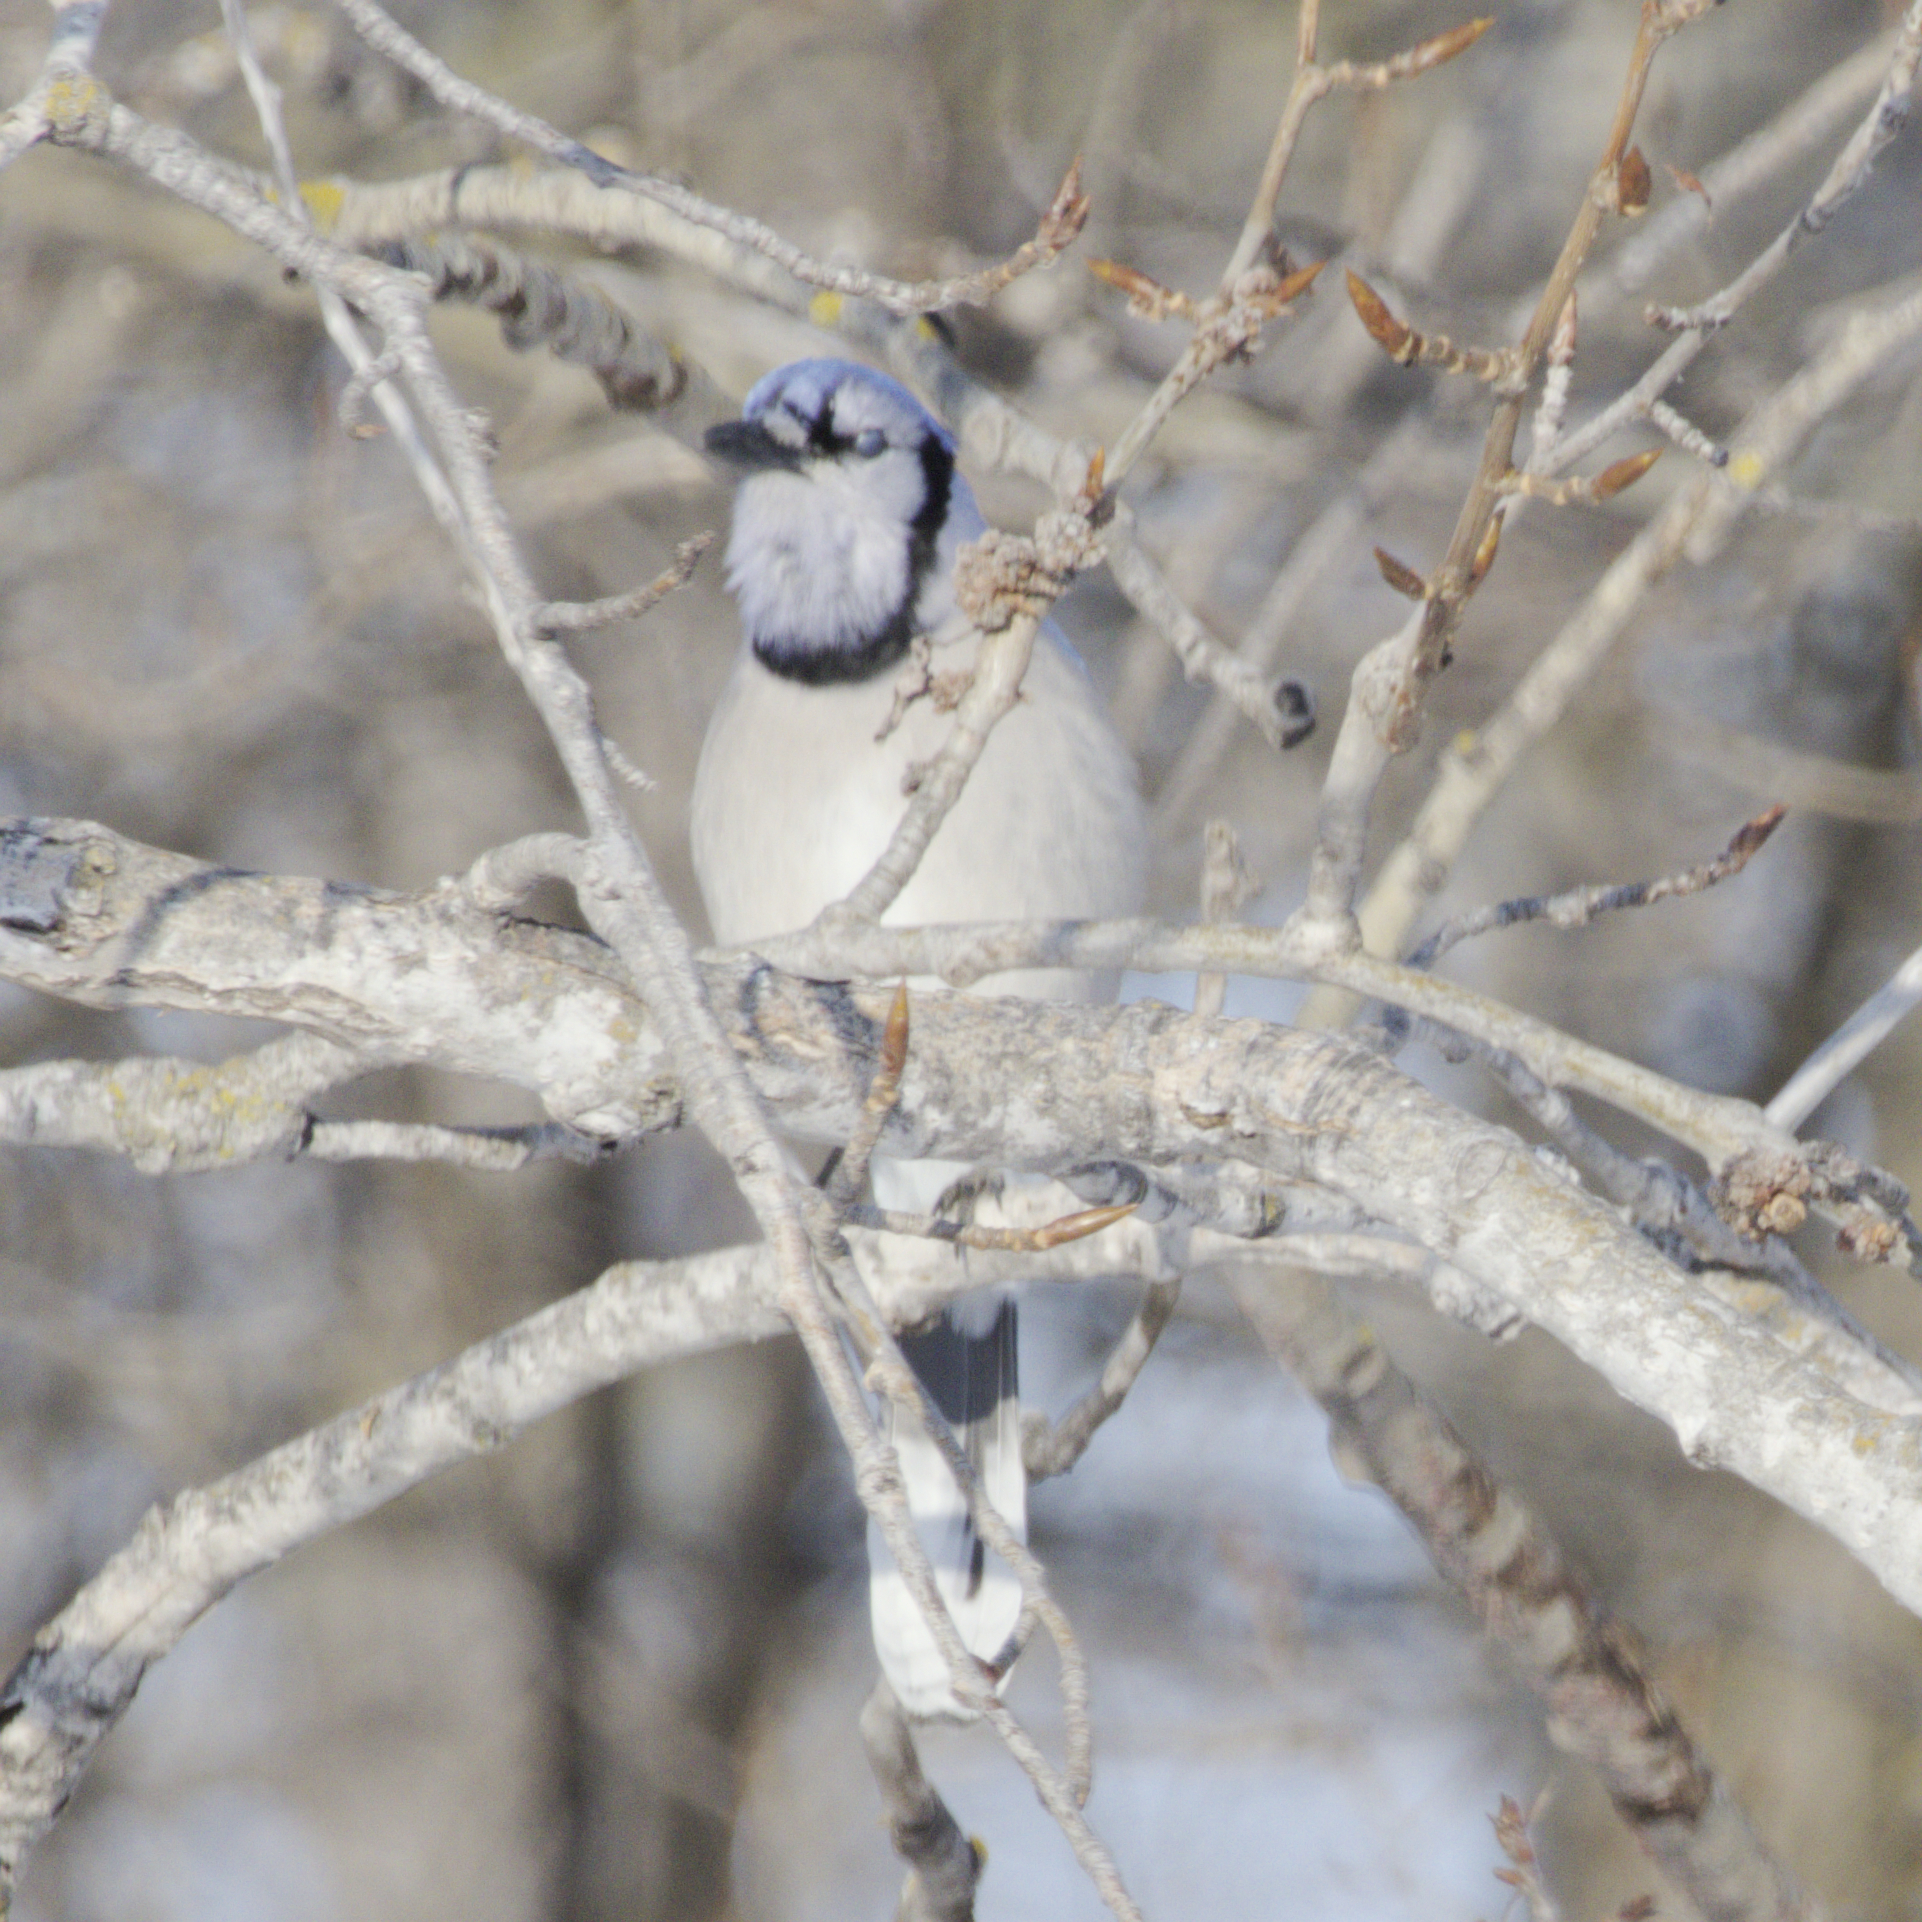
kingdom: Animalia
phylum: Chordata
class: Aves
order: Passeriformes
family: Corvidae
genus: Cyanocitta
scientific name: Cyanocitta cristata
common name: Blue jay
